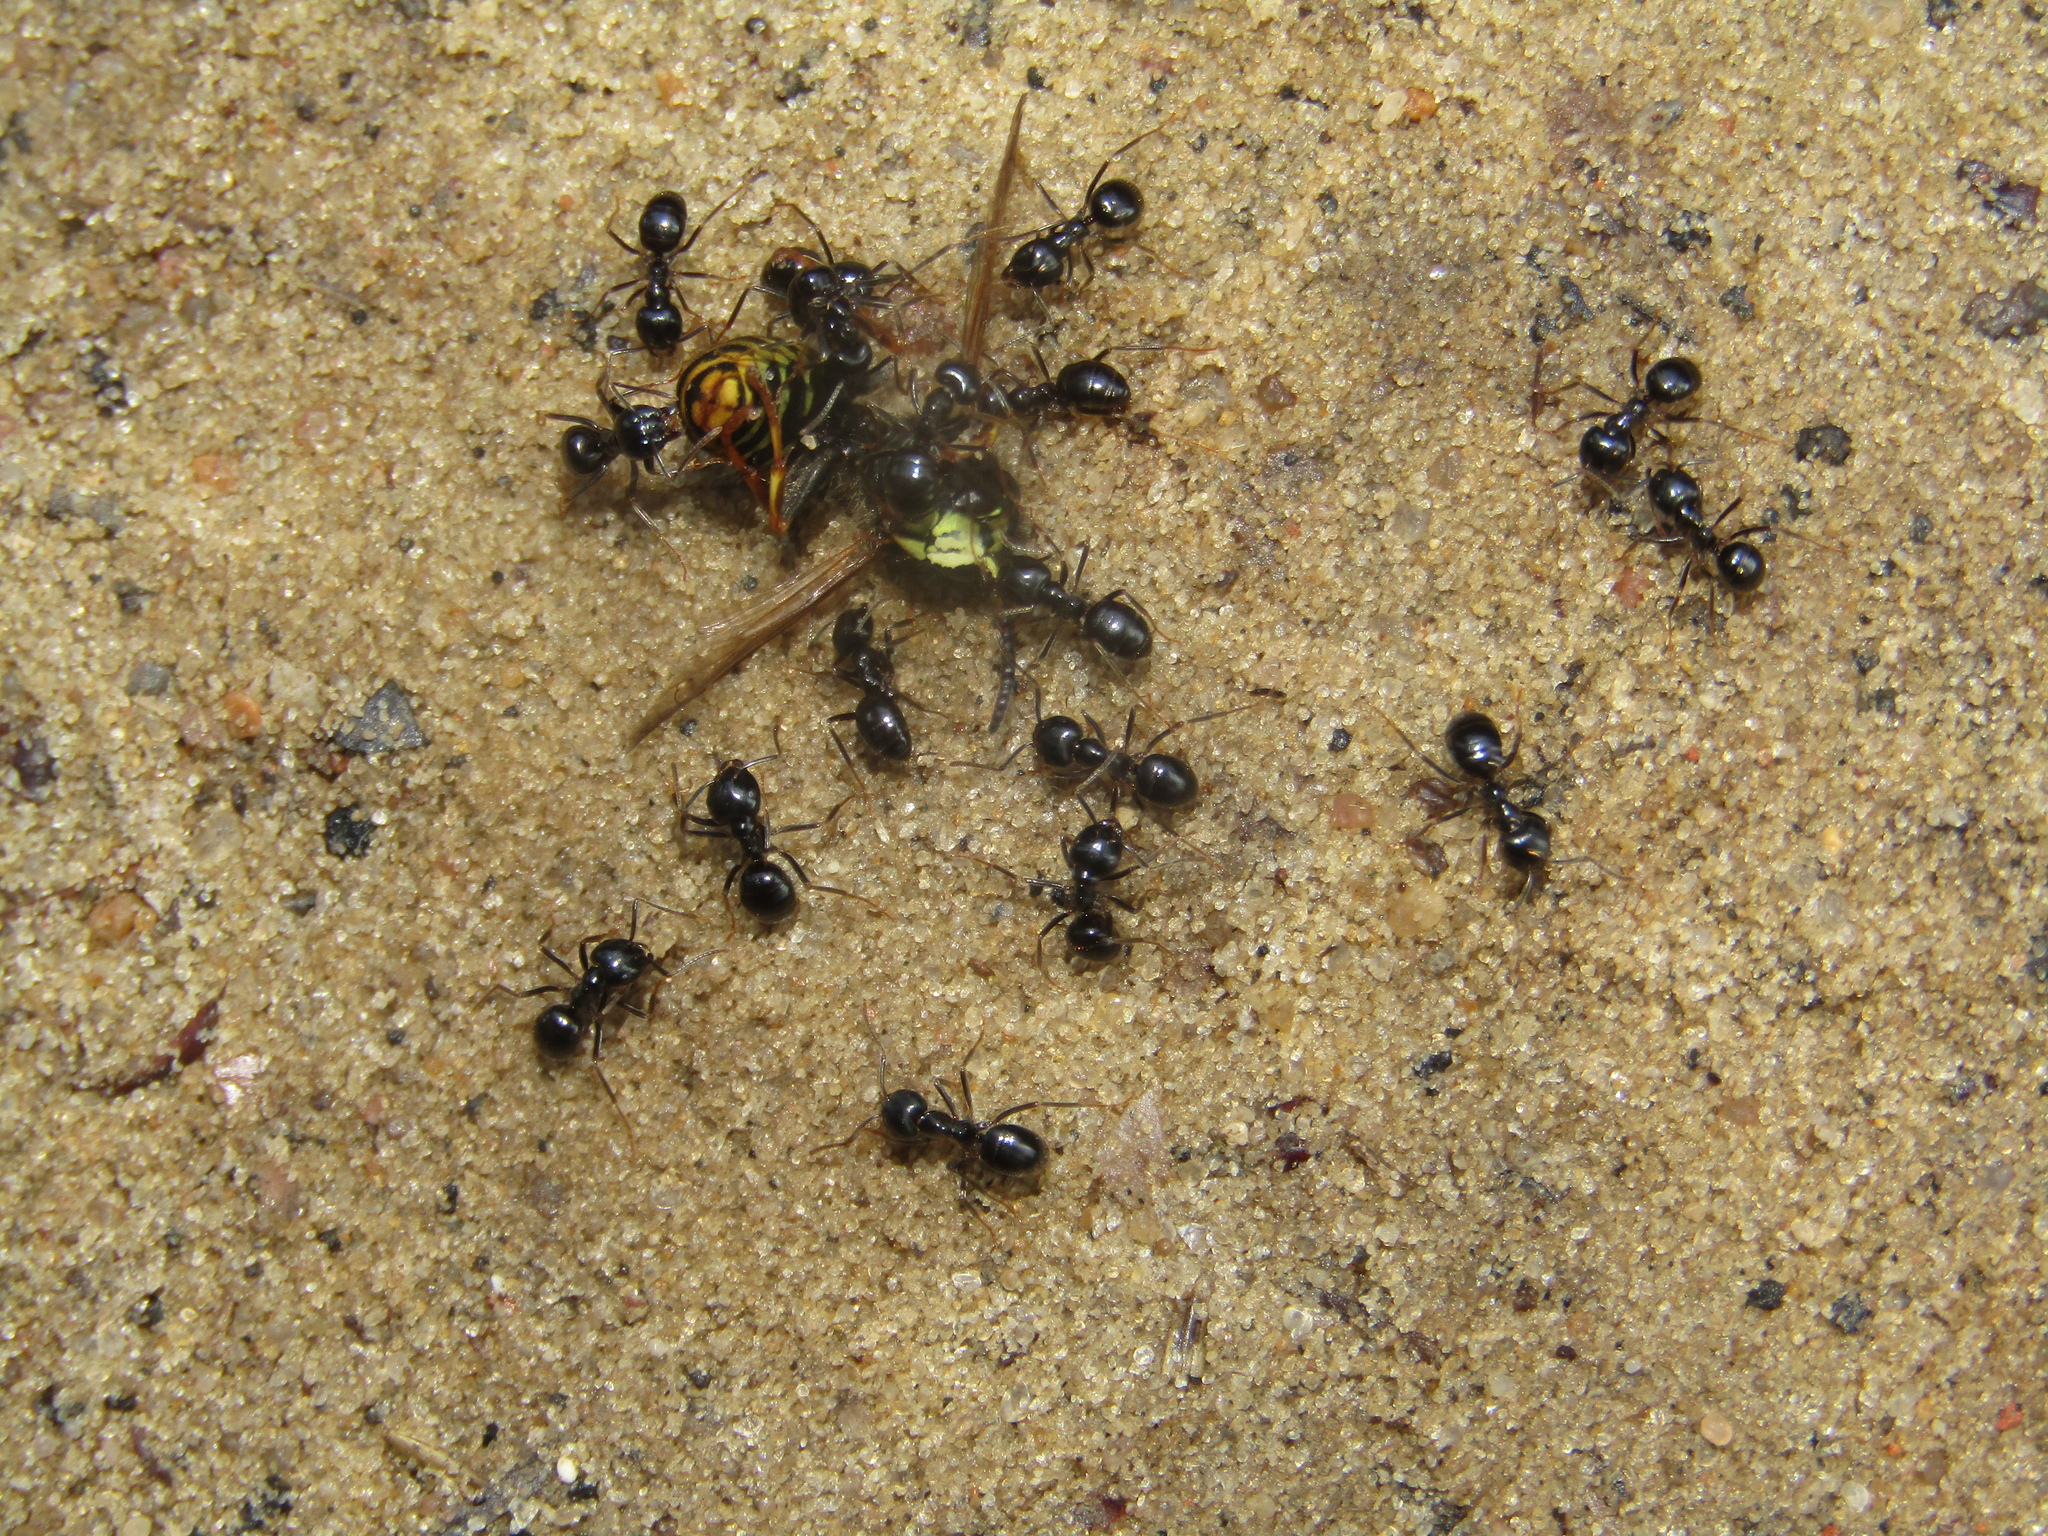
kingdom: Animalia
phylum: Arthropoda
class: Insecta
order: Hymenoptera
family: Formicidae
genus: Lasius
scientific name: Lasius fuliginosus
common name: Jet ant
